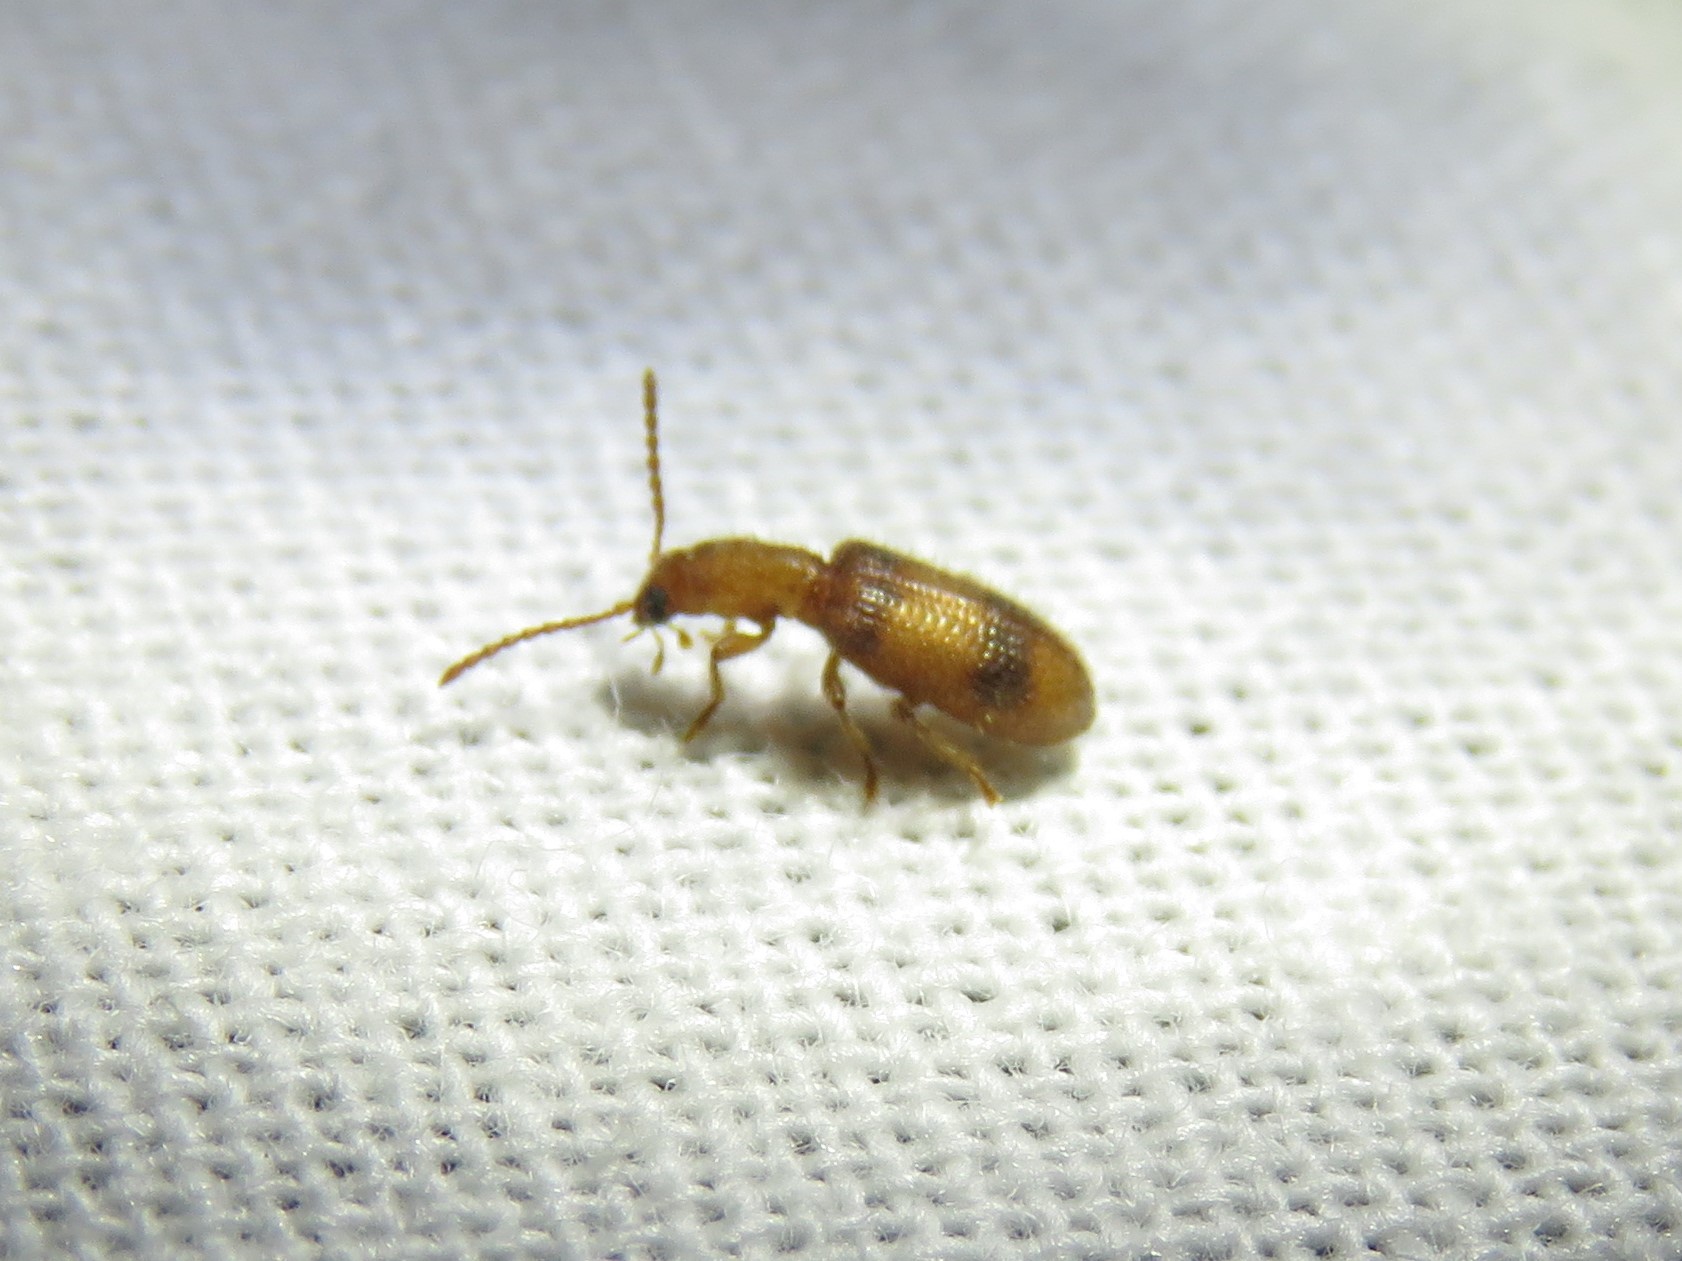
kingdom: Animalia
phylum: Arthropoda
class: Insecta
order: Coleoptera
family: Cleridae
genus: Cymatodera
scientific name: Cymatodera puncticollis
